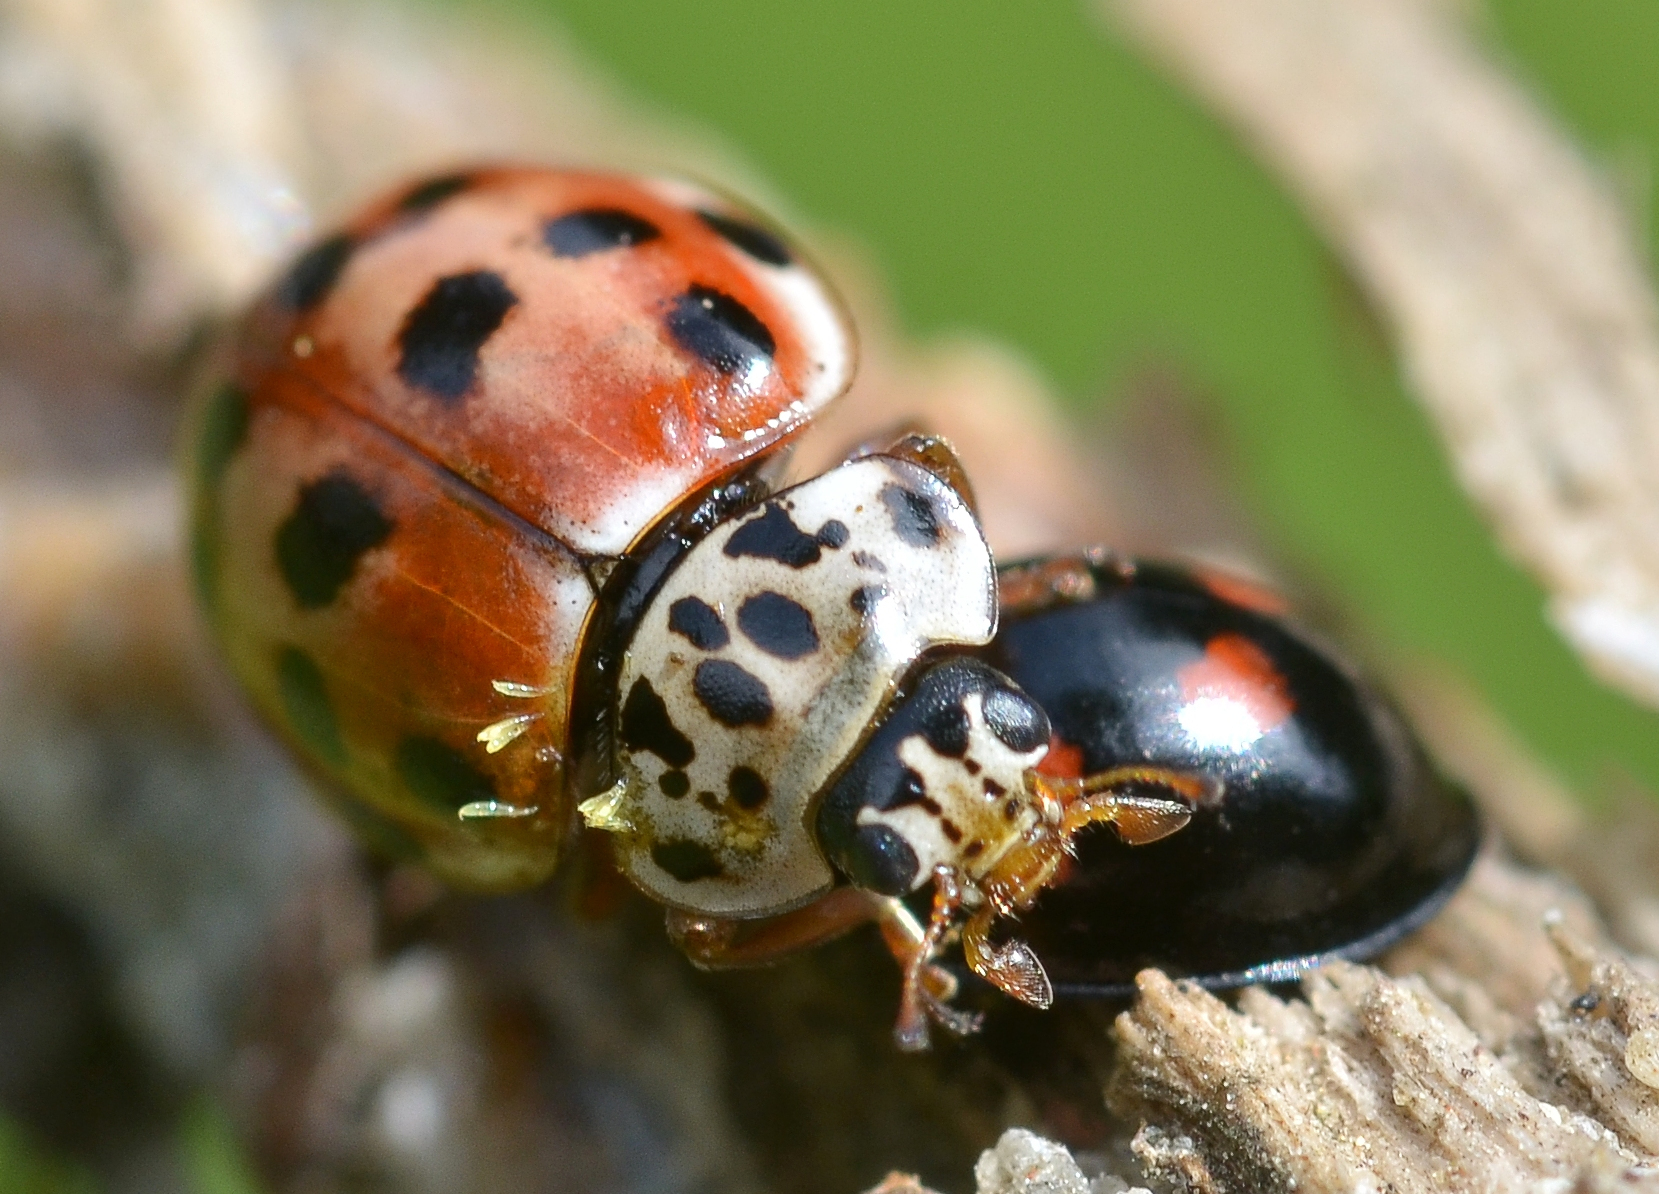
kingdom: Fungi
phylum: Ascomycota
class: Laboulbeniomycetes
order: Laboulbeniales
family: Laboulbeniaceae
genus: Hesperomyces
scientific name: Hesperomyces harmoniae
